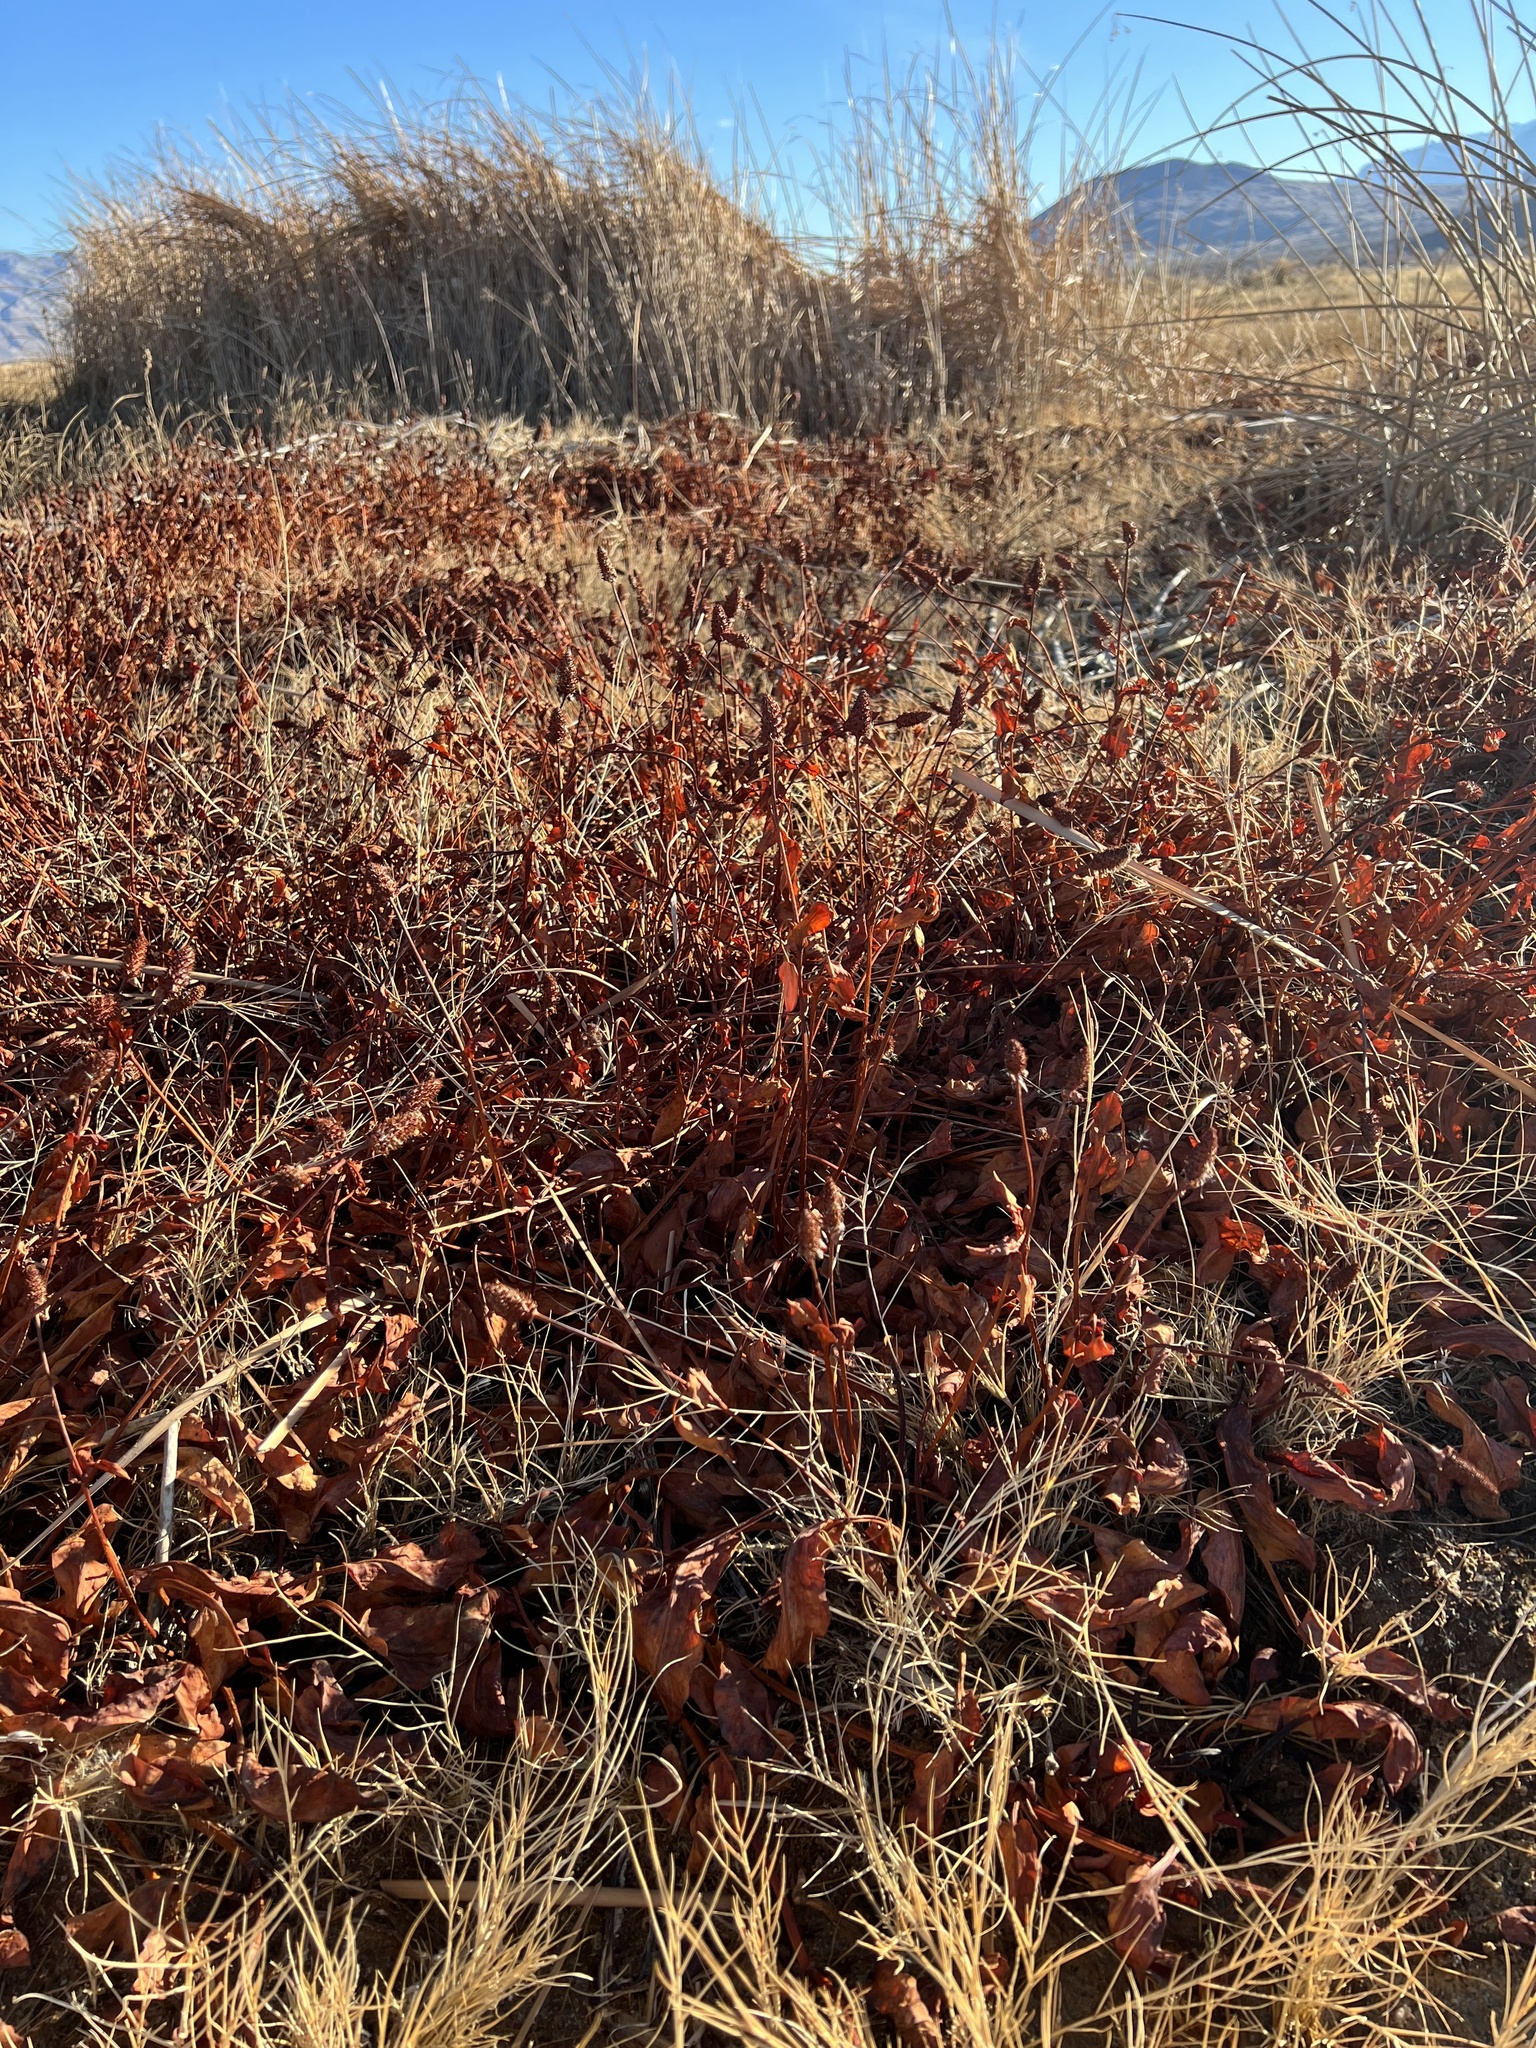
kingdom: Plantae
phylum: Tracheophyta
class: Magnoliopsida
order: Piperales
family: Saururaceae
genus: Anemopsis
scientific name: Anemopsis californica
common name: Apache-beads
